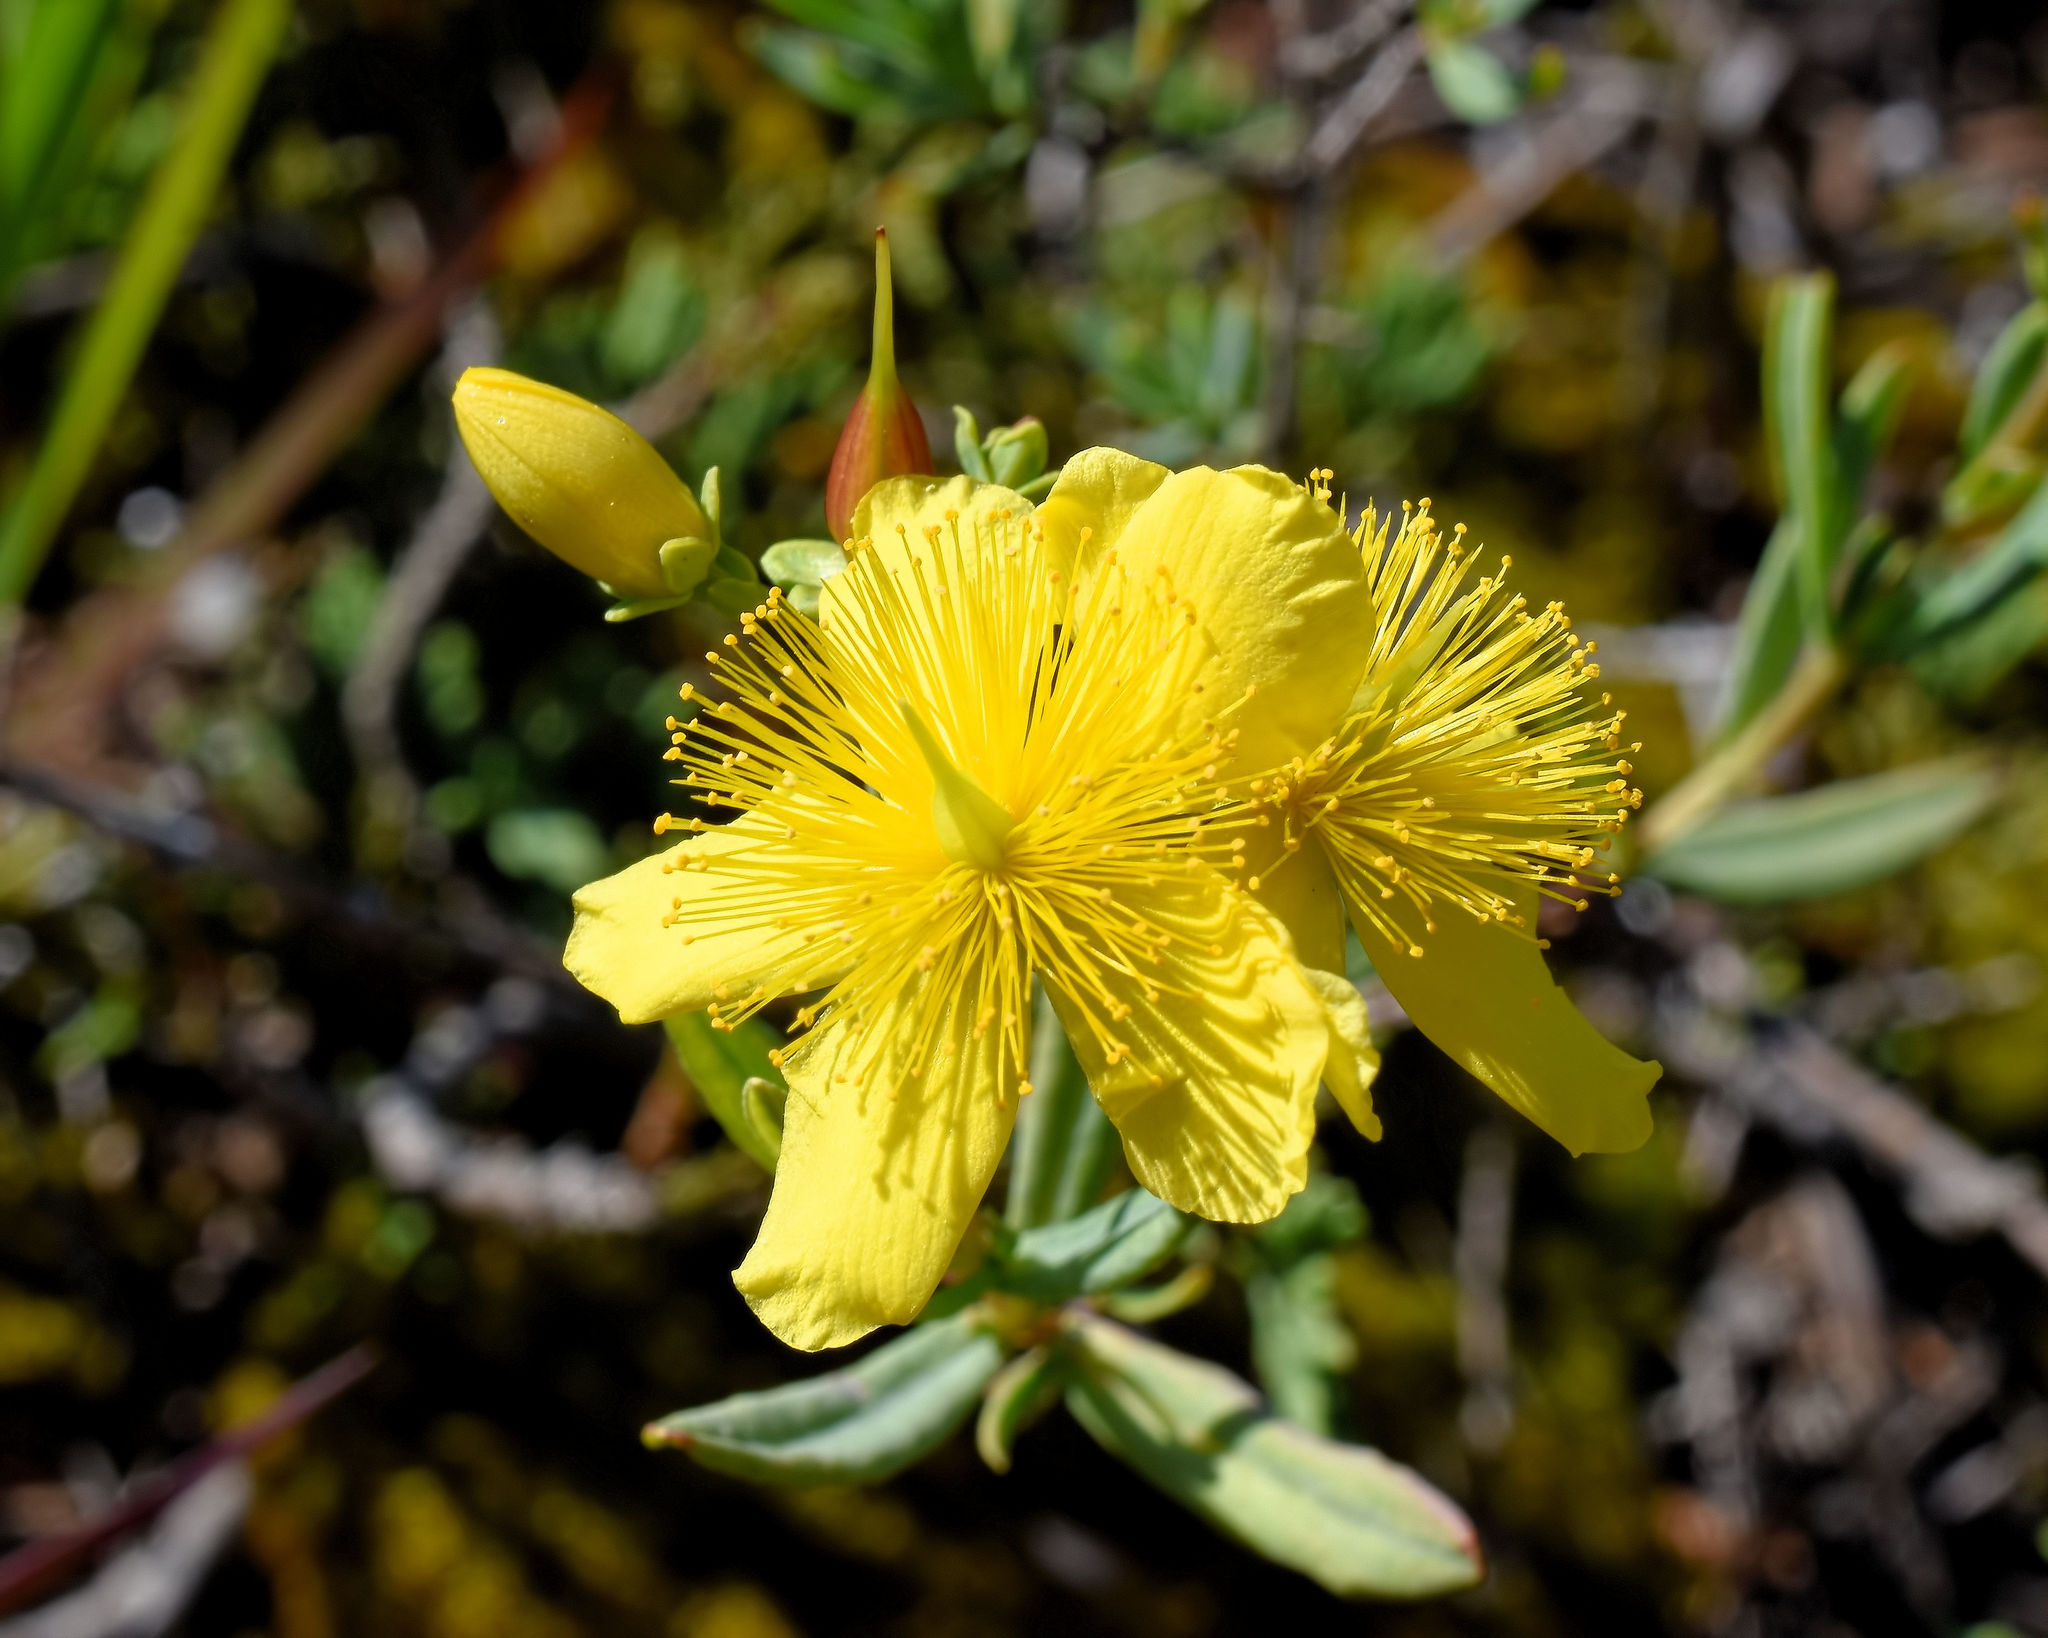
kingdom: Plantae
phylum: Tracheophyta
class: Magnoliopsida
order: Malpighiales
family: Hypericaceae
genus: Hypericum
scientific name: Hypericum kalmianum
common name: Kalm's st. john's-wort
